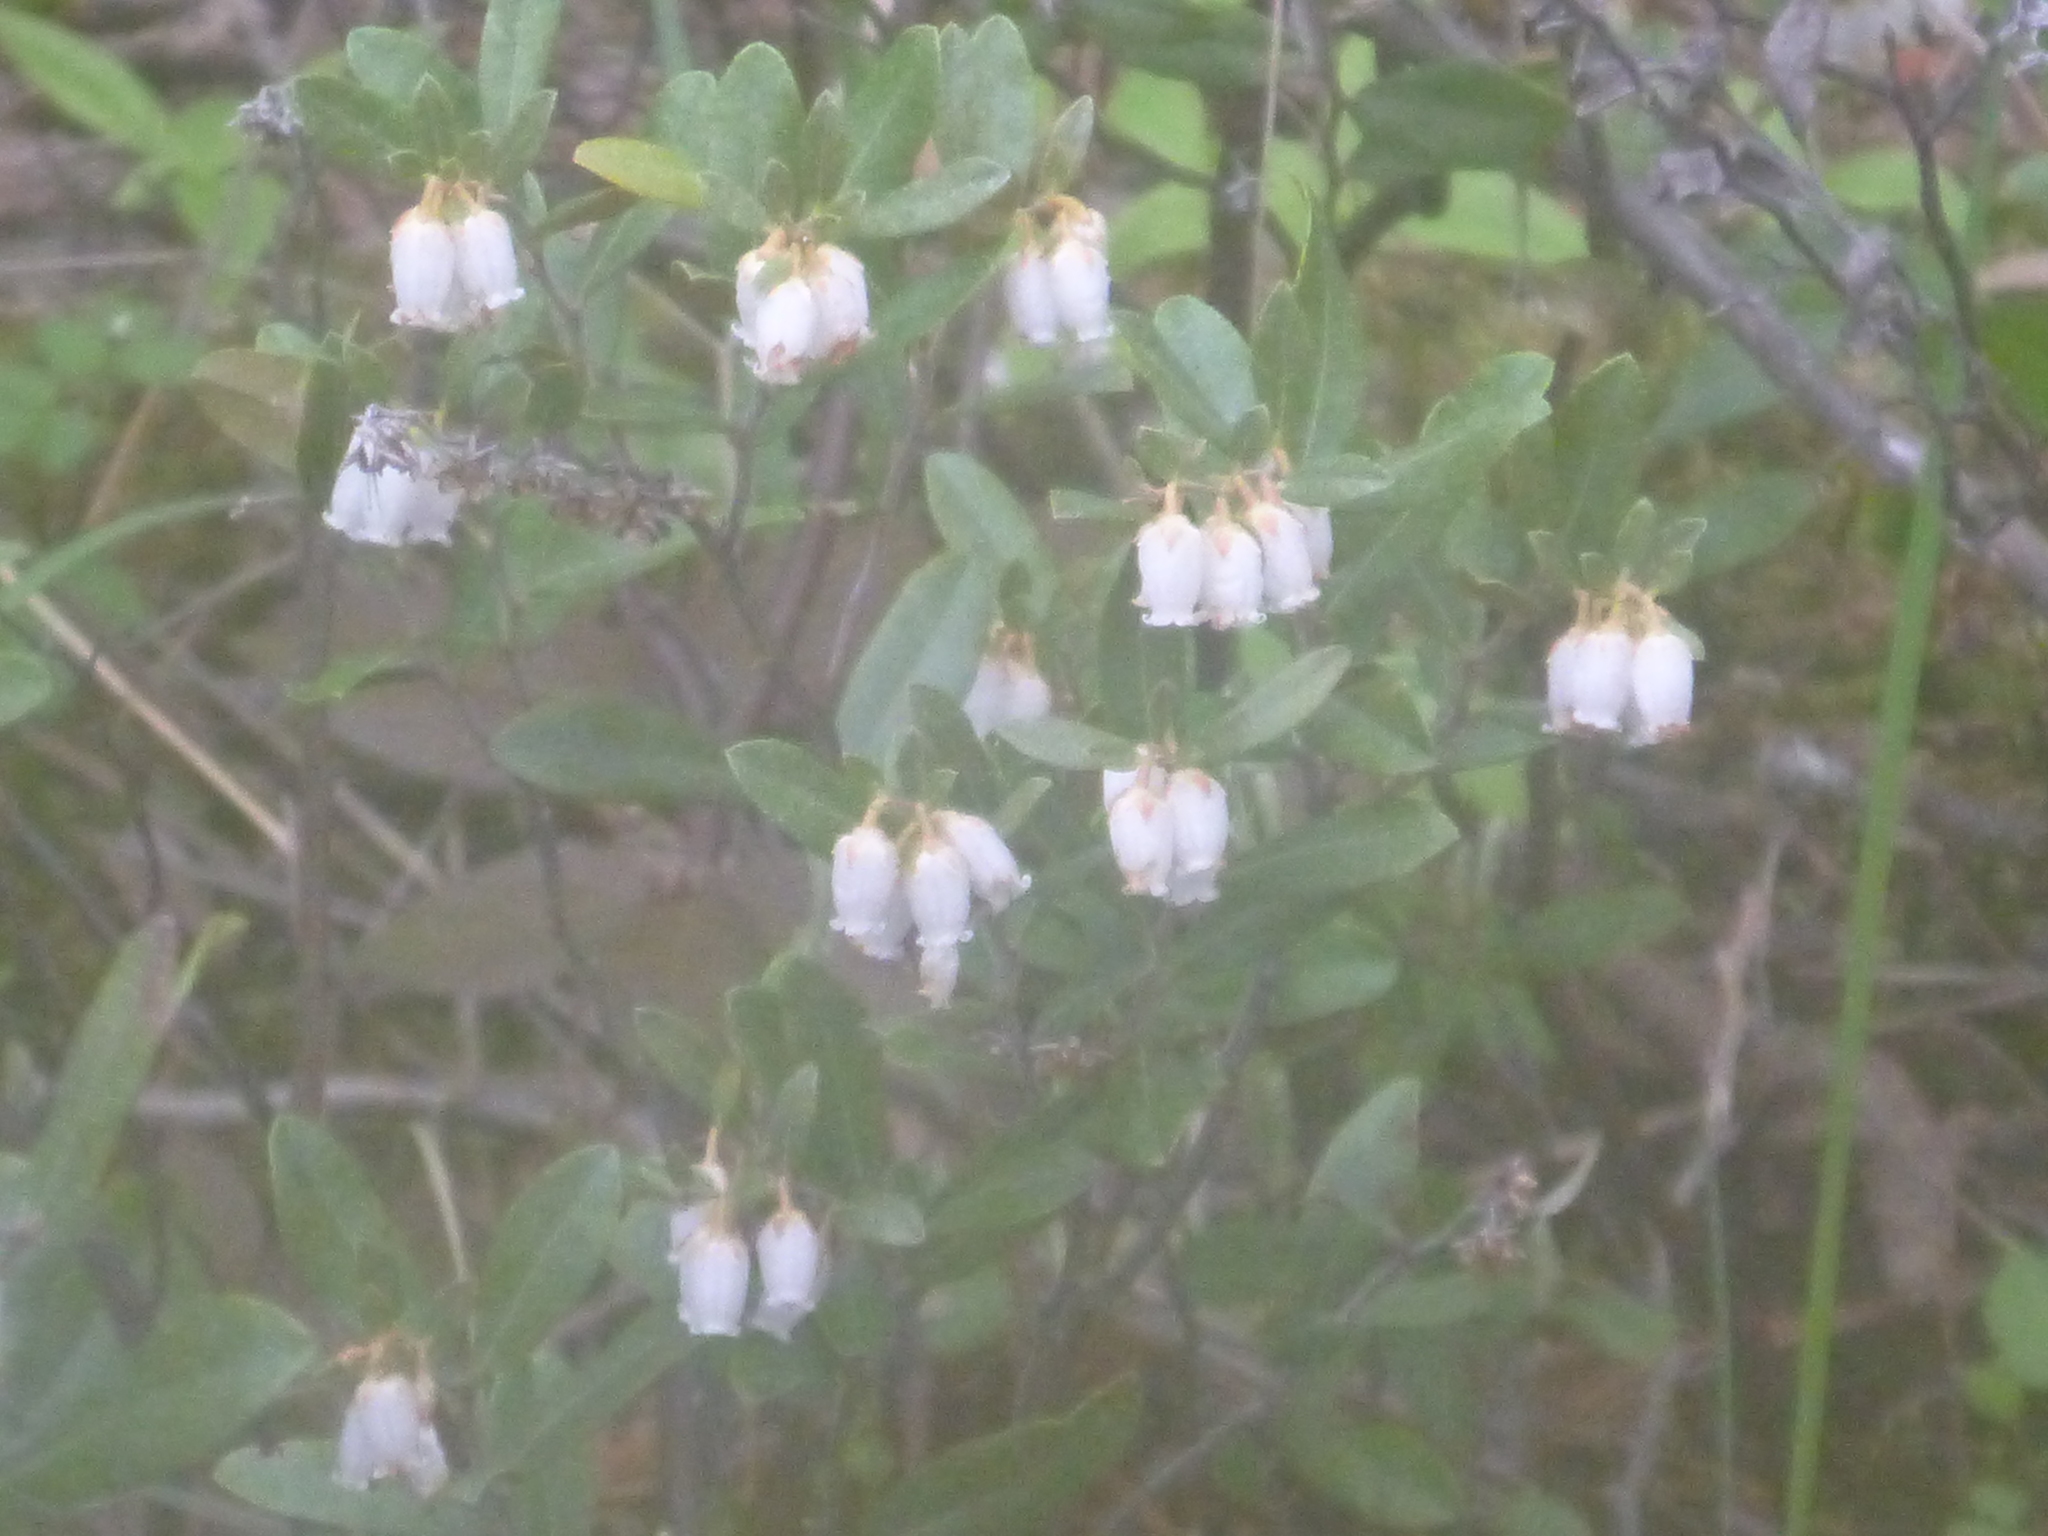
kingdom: Plantae
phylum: Tracheophyta
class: Magnoliopsida
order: Ericales
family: Ericaceae
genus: Chamaedaphne
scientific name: Chamaedaphne calyculata
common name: Leatherleaf
